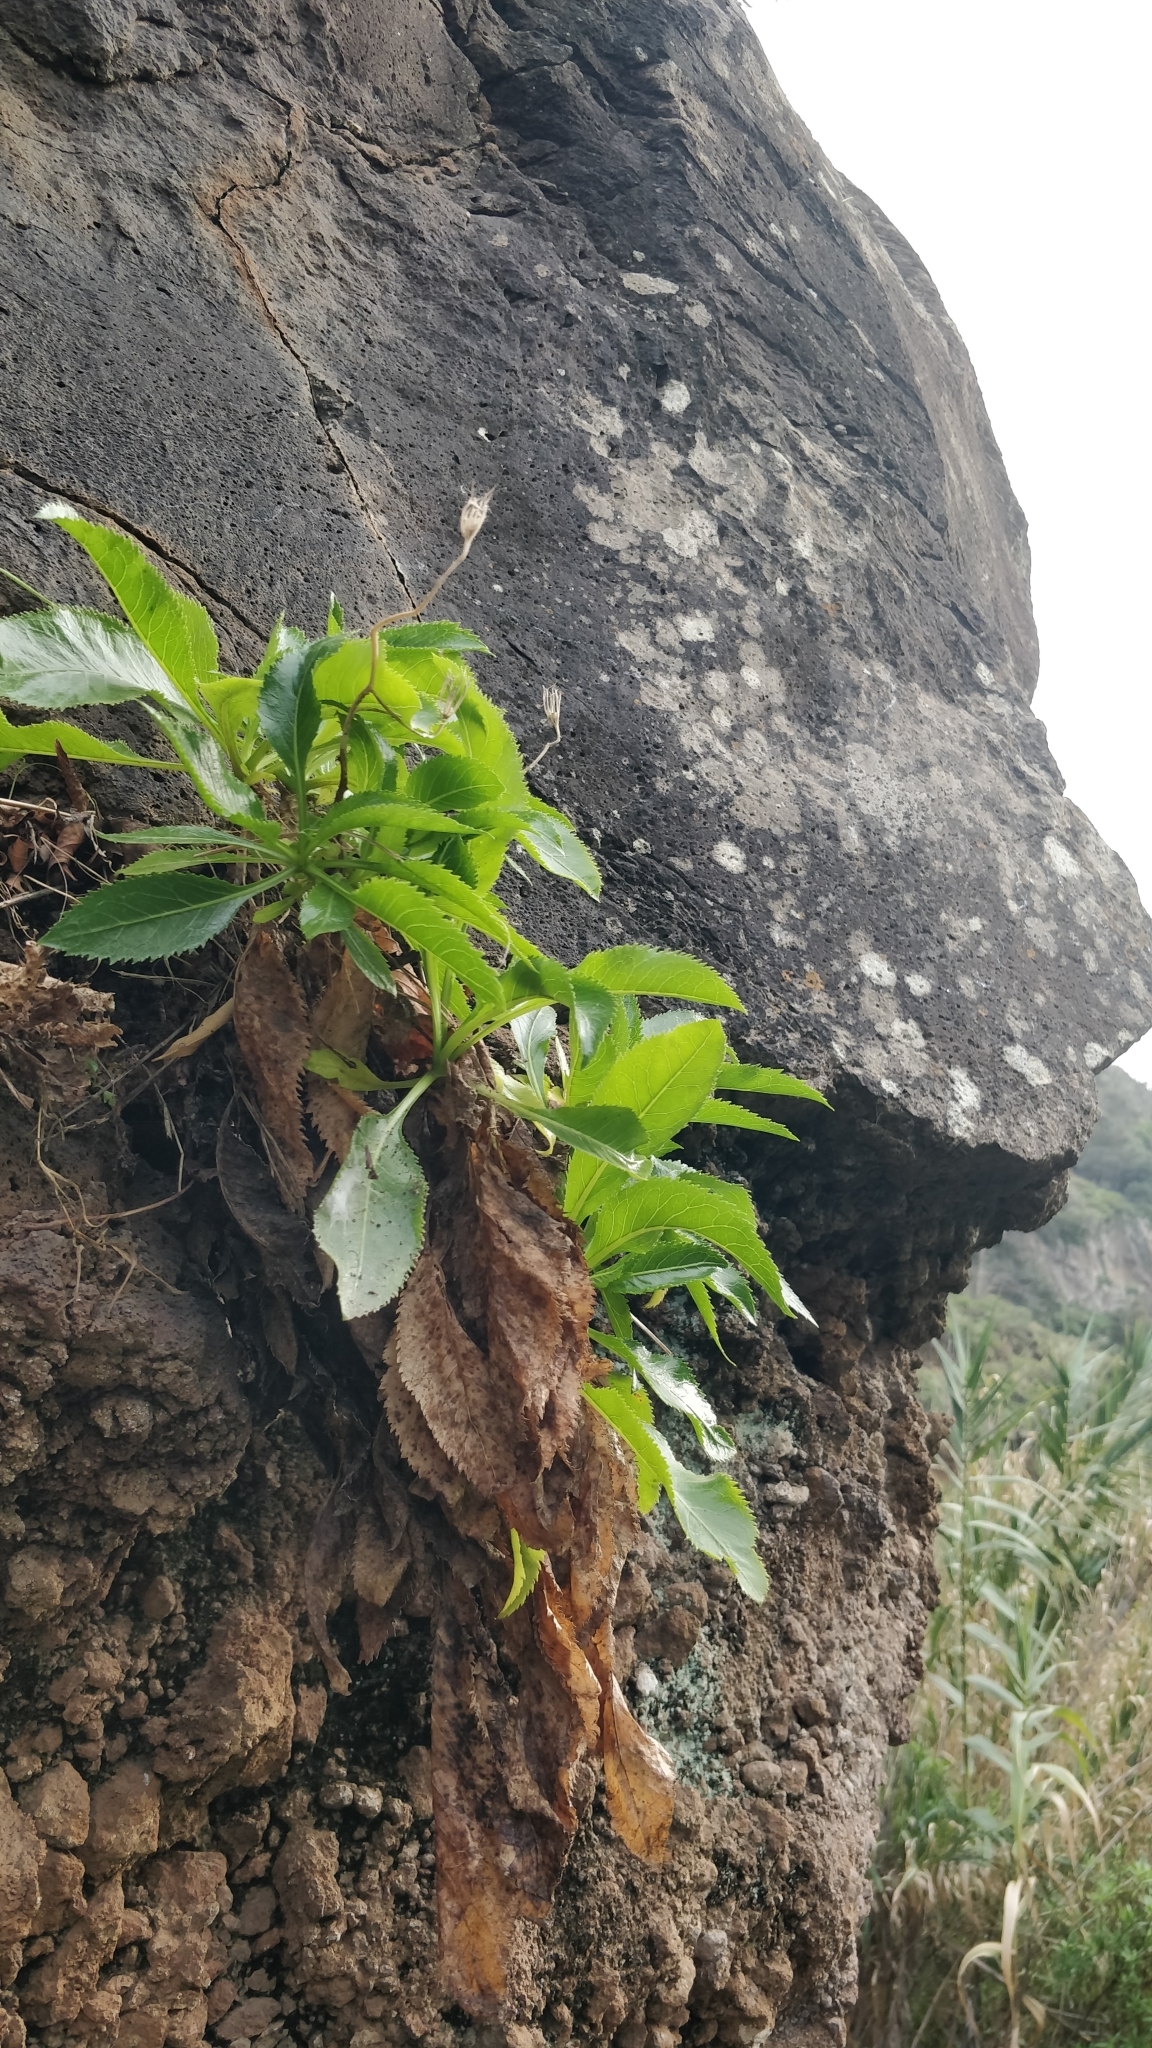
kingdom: Plantae
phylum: Tracheophyta
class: Magnoliopsida
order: Asterales
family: Campanulaceae
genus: Musschia
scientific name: Musschia aurea
